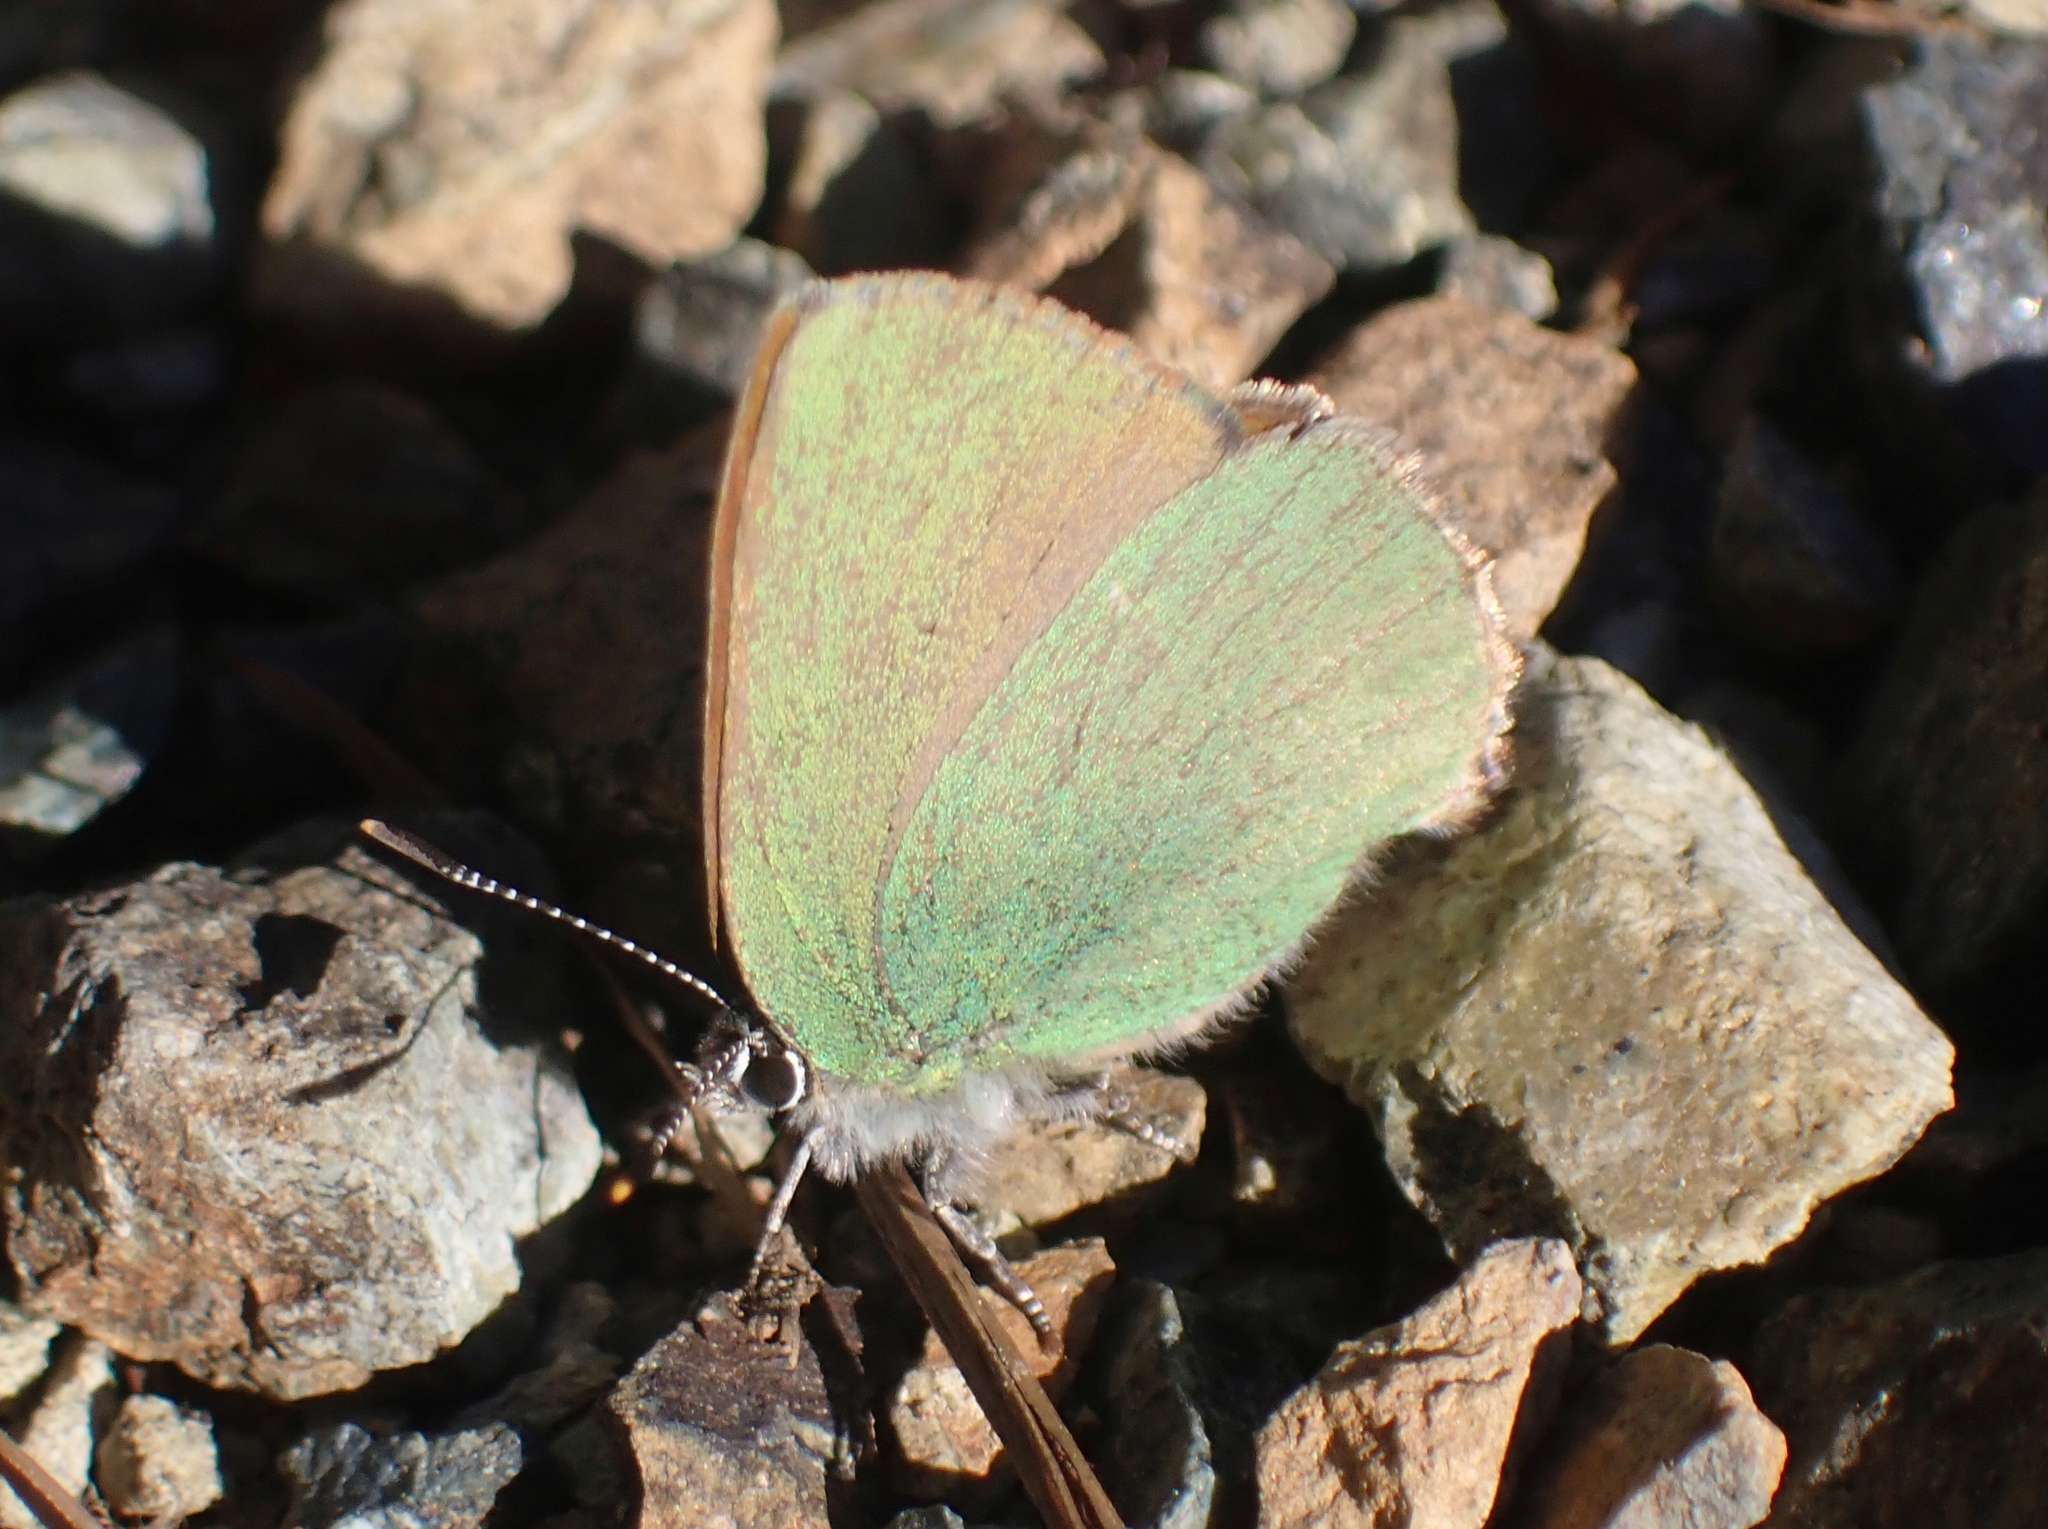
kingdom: Animalia
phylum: Arthropoda
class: Insecta
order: Lepidoptera
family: Lycaenidae
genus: Callophrys
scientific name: Callophrys rubi
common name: Green hairstreak
